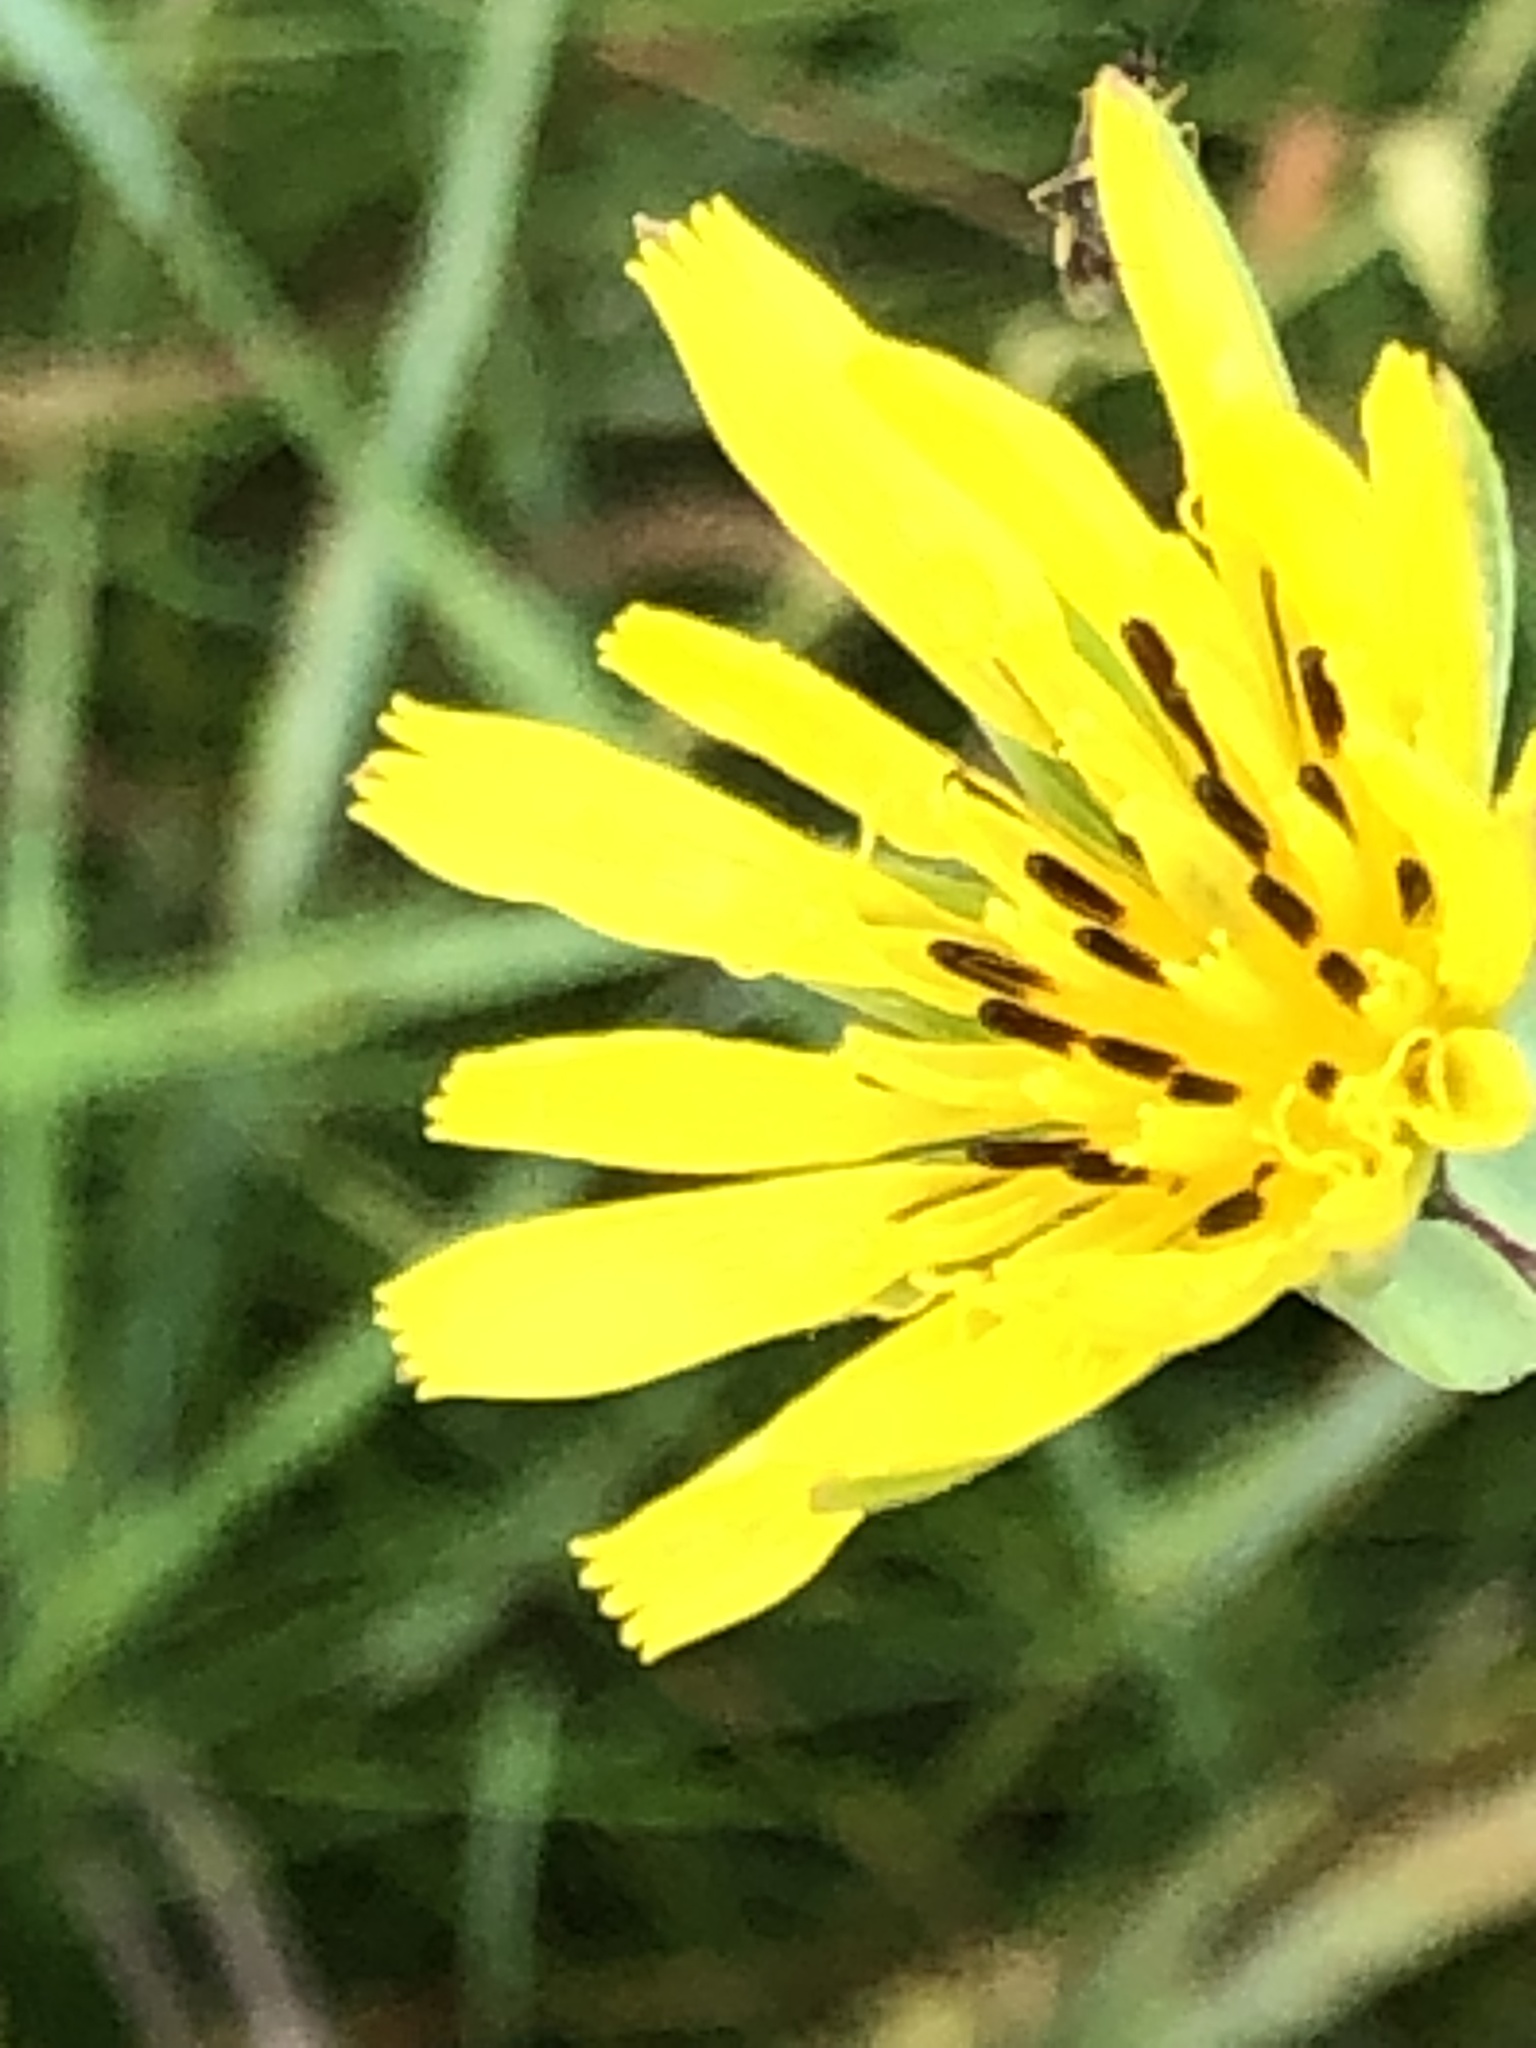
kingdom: Plantae
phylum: Tracheophyta
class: Magnoliopsida
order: Asterales
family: Asteraceae
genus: Tragopogon
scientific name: Tragopogon pratensis
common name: Goat's-beard
